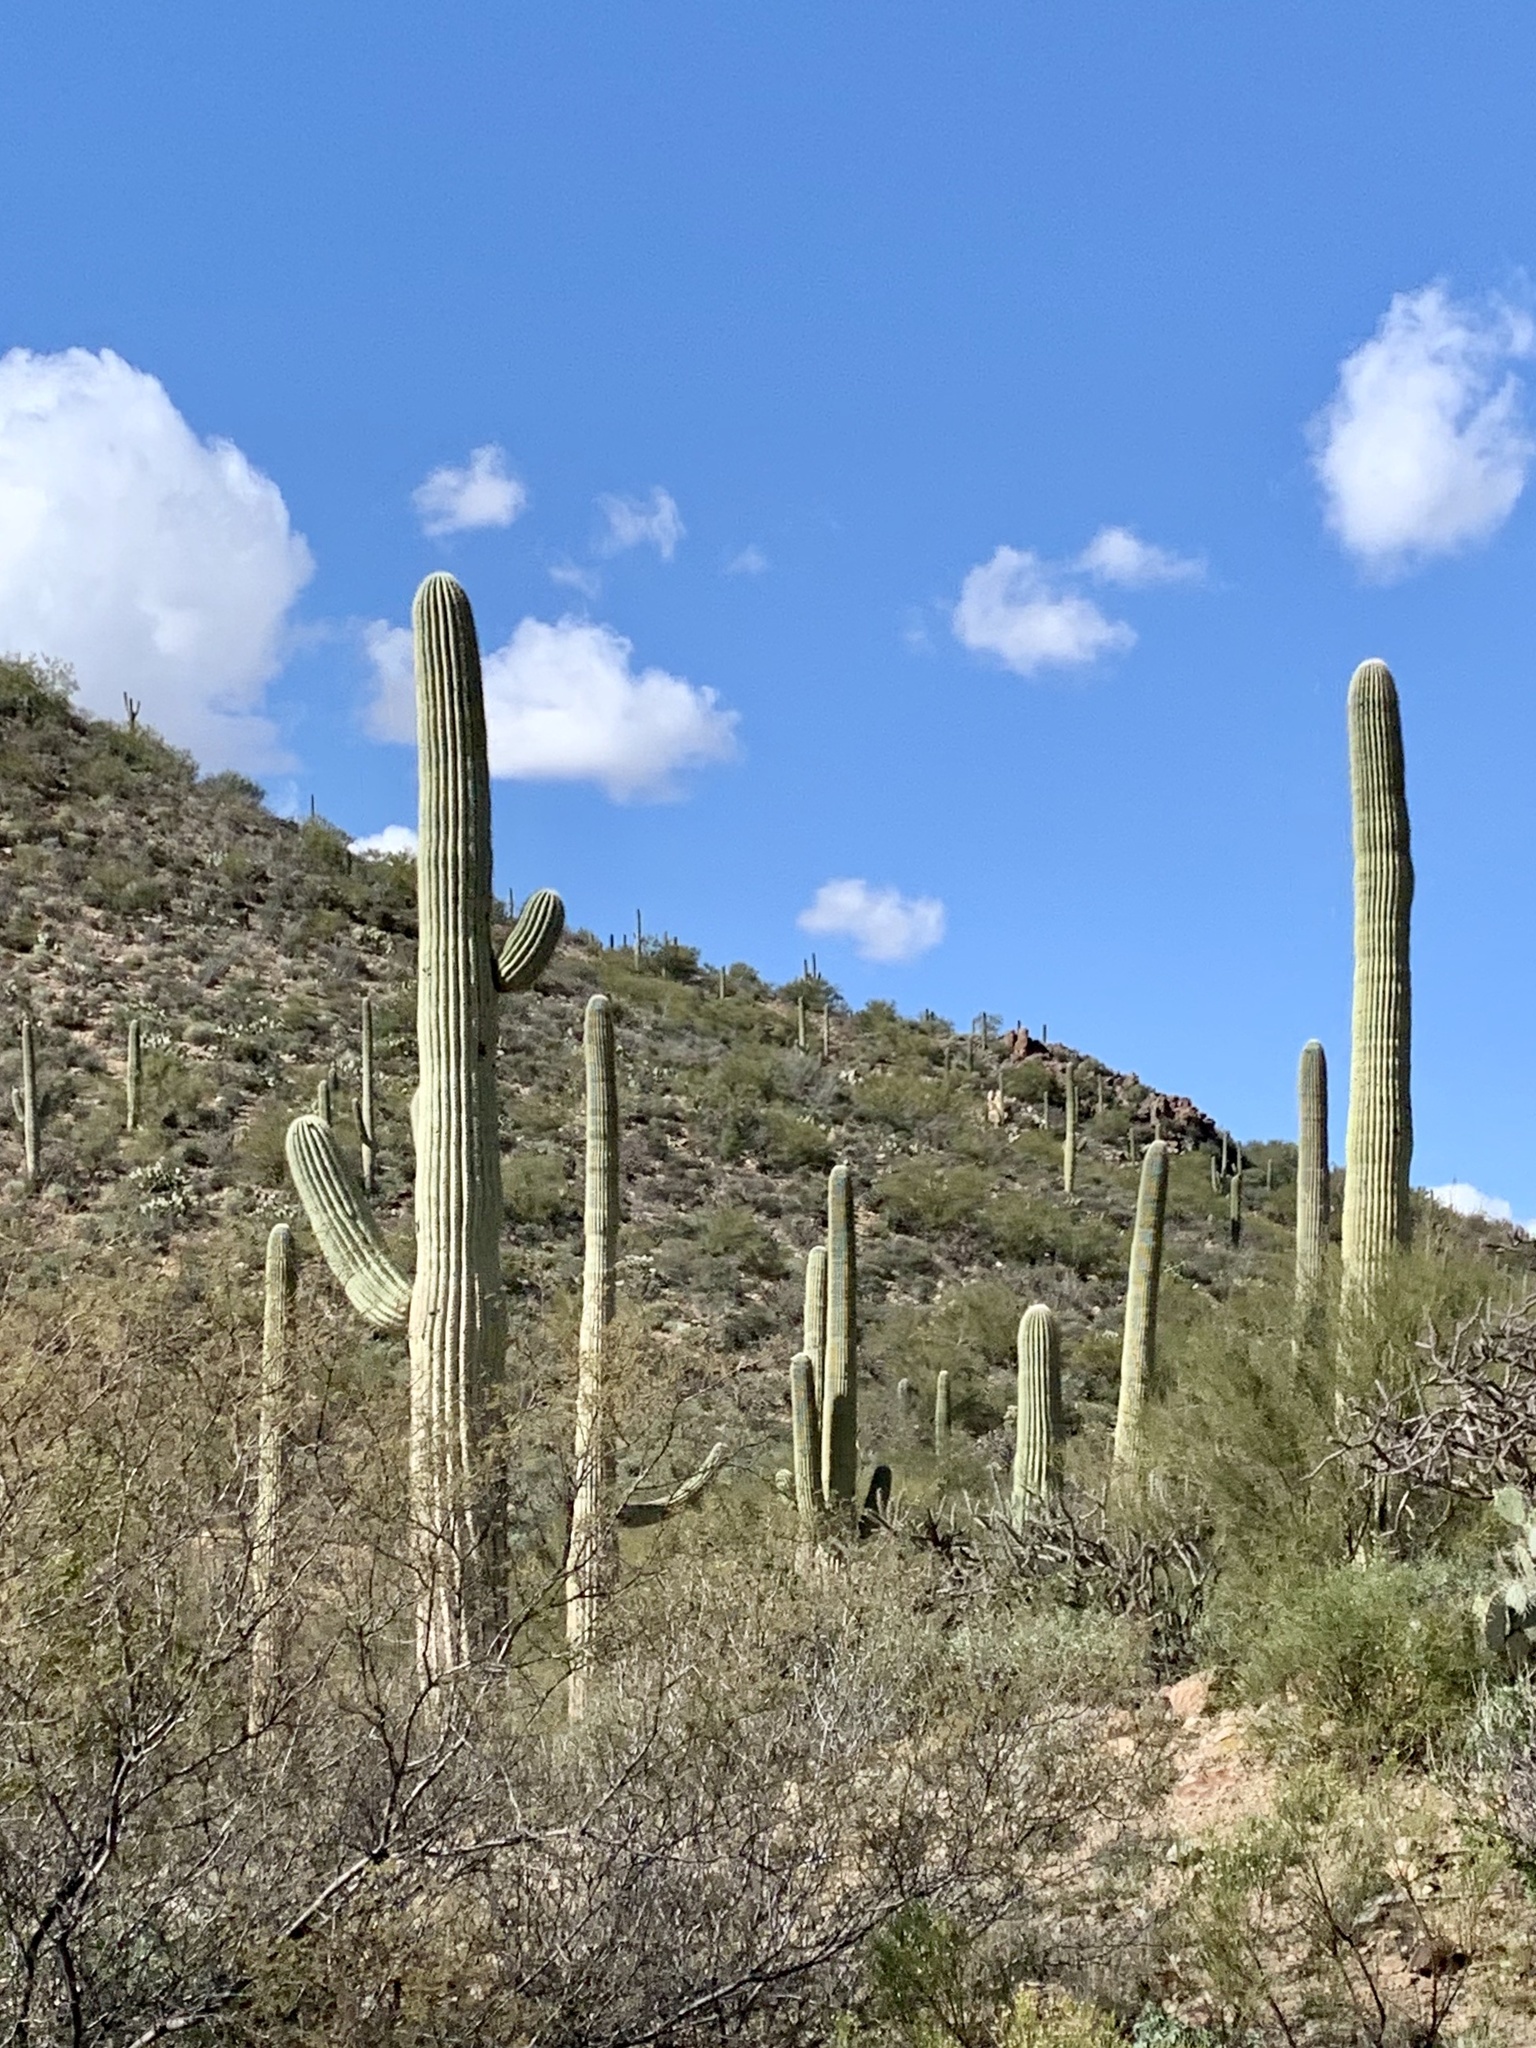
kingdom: Plantae
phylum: Tracheophyta
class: Magnoliopsida
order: Caryophyllales
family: Cactaceae
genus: Carnegiea
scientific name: Carnegiea gigantea
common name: Saguaro
